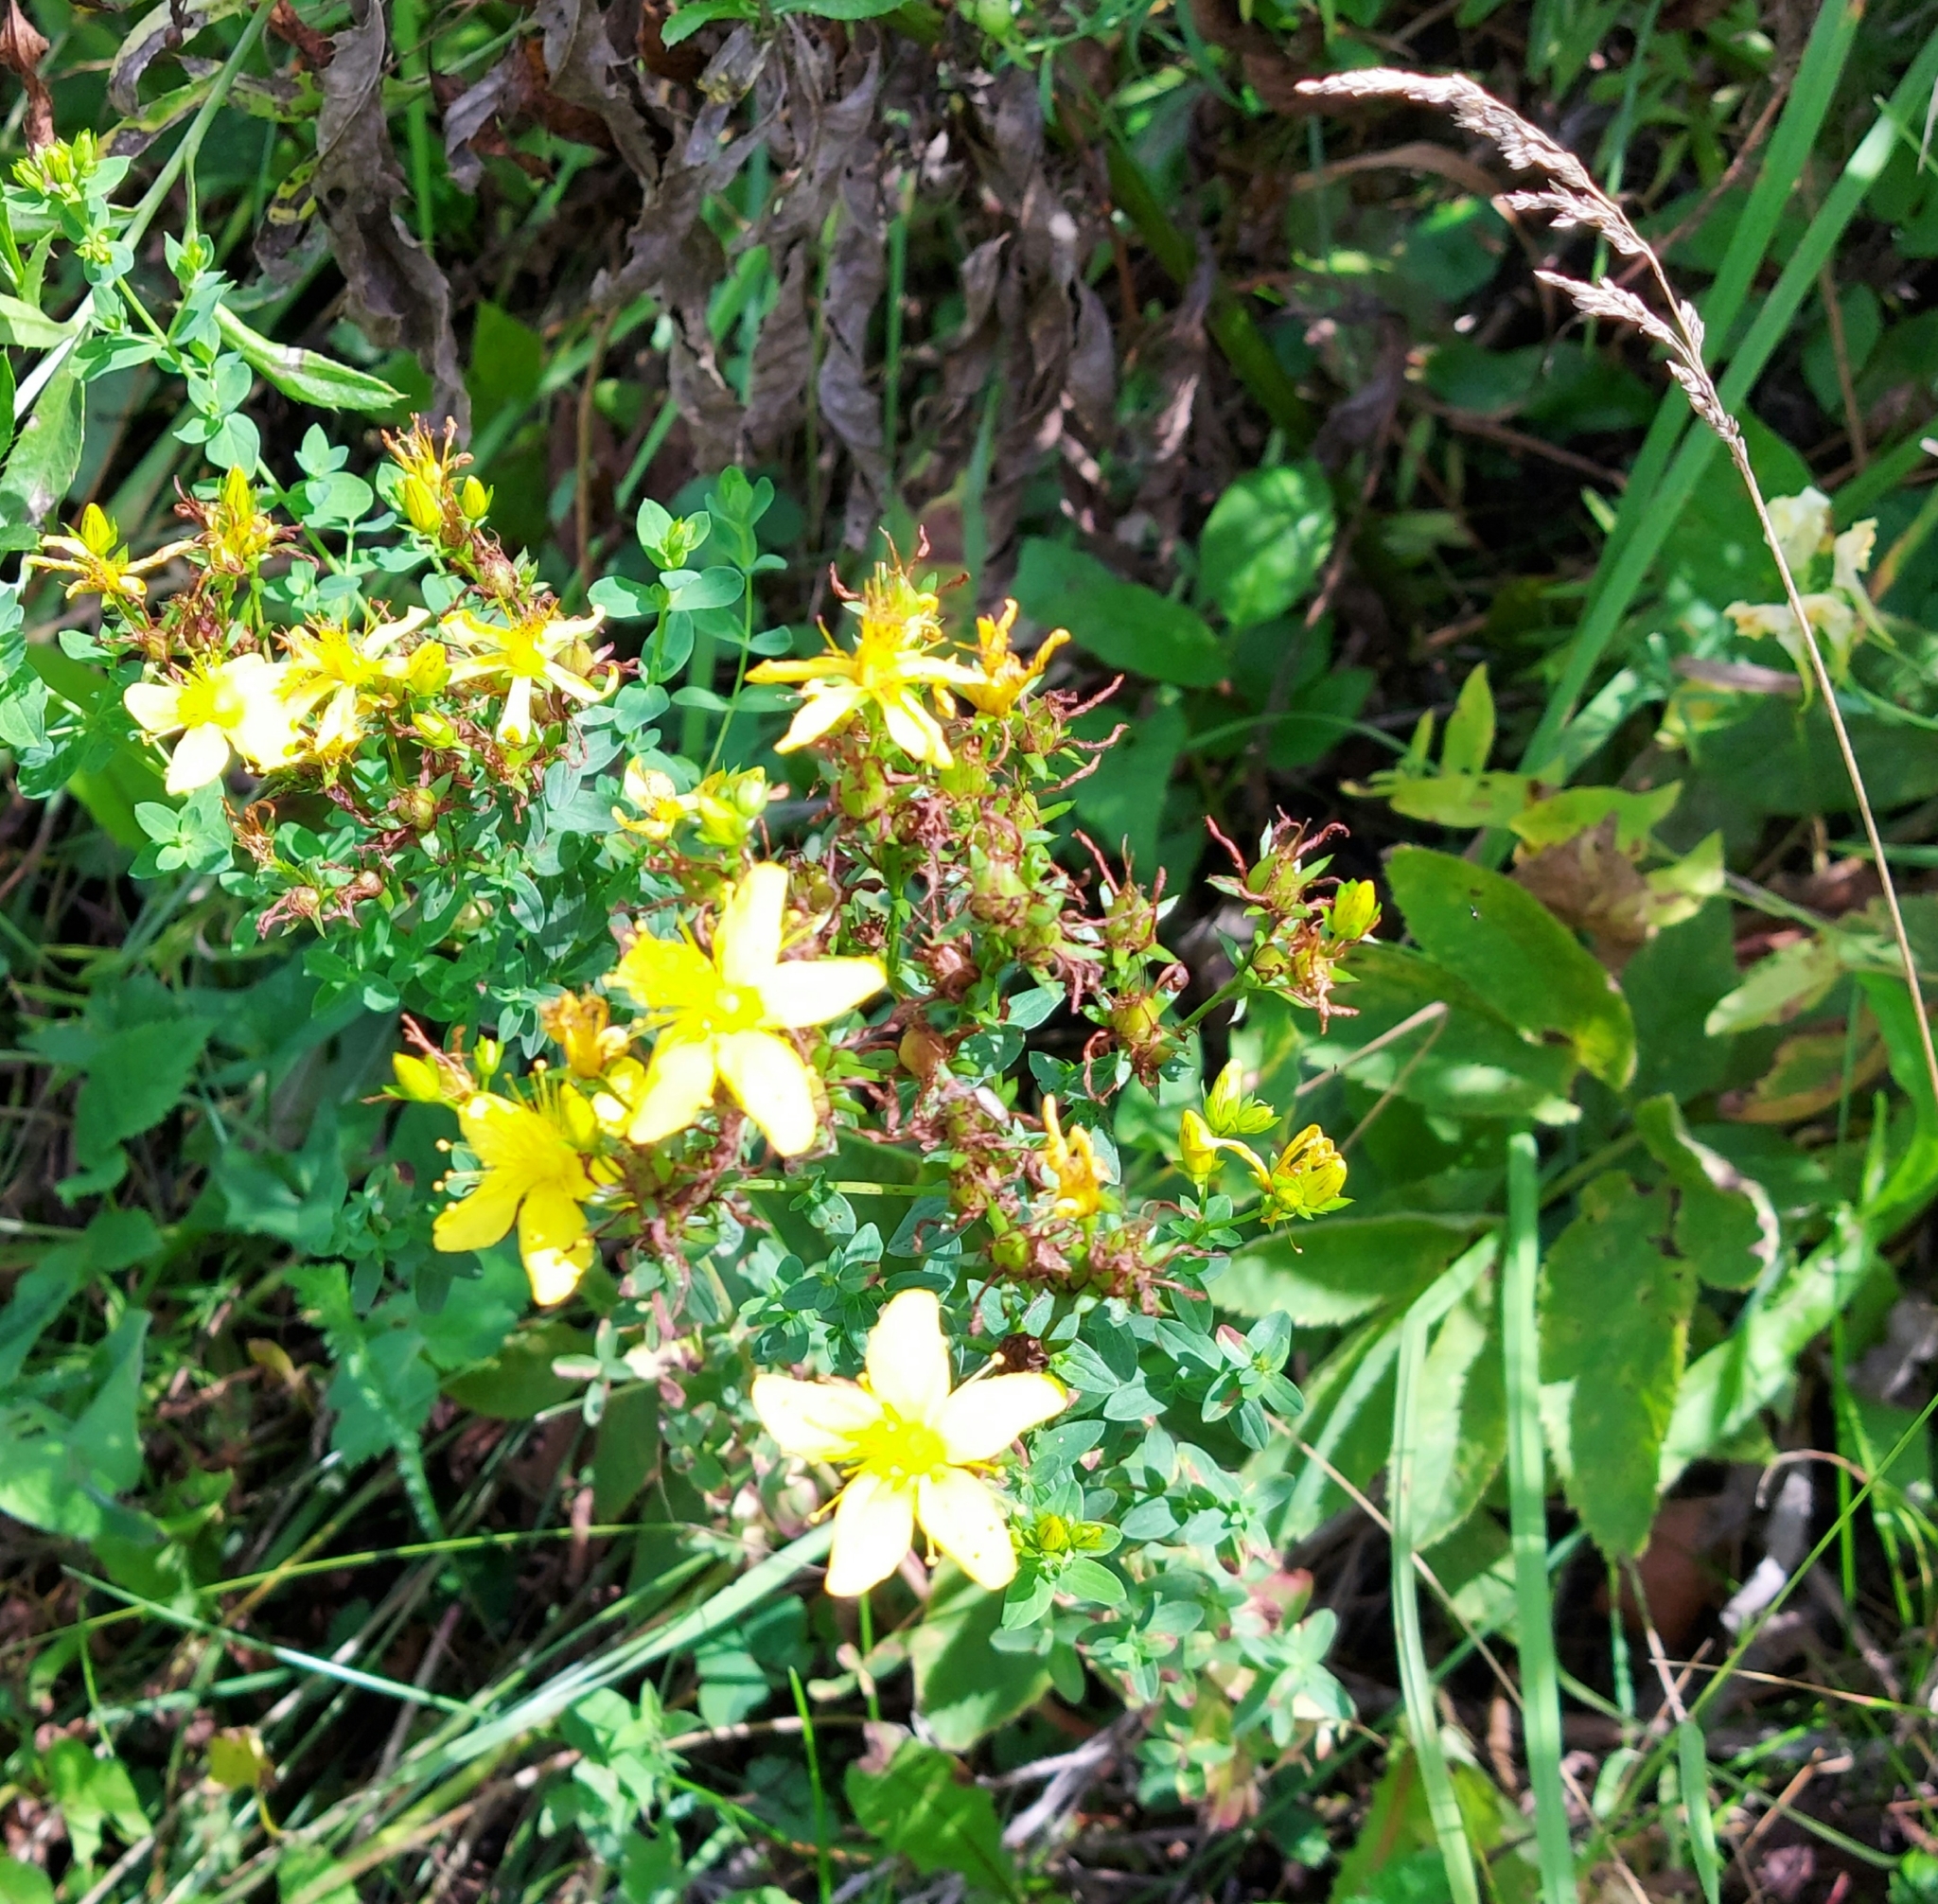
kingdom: Plantae
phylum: Tracheophyta
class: Magnoliopsida
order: Malpighiales
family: Hypericaceae
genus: Hypericum
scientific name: Hypericum perforatum
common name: Common st. johnswort
